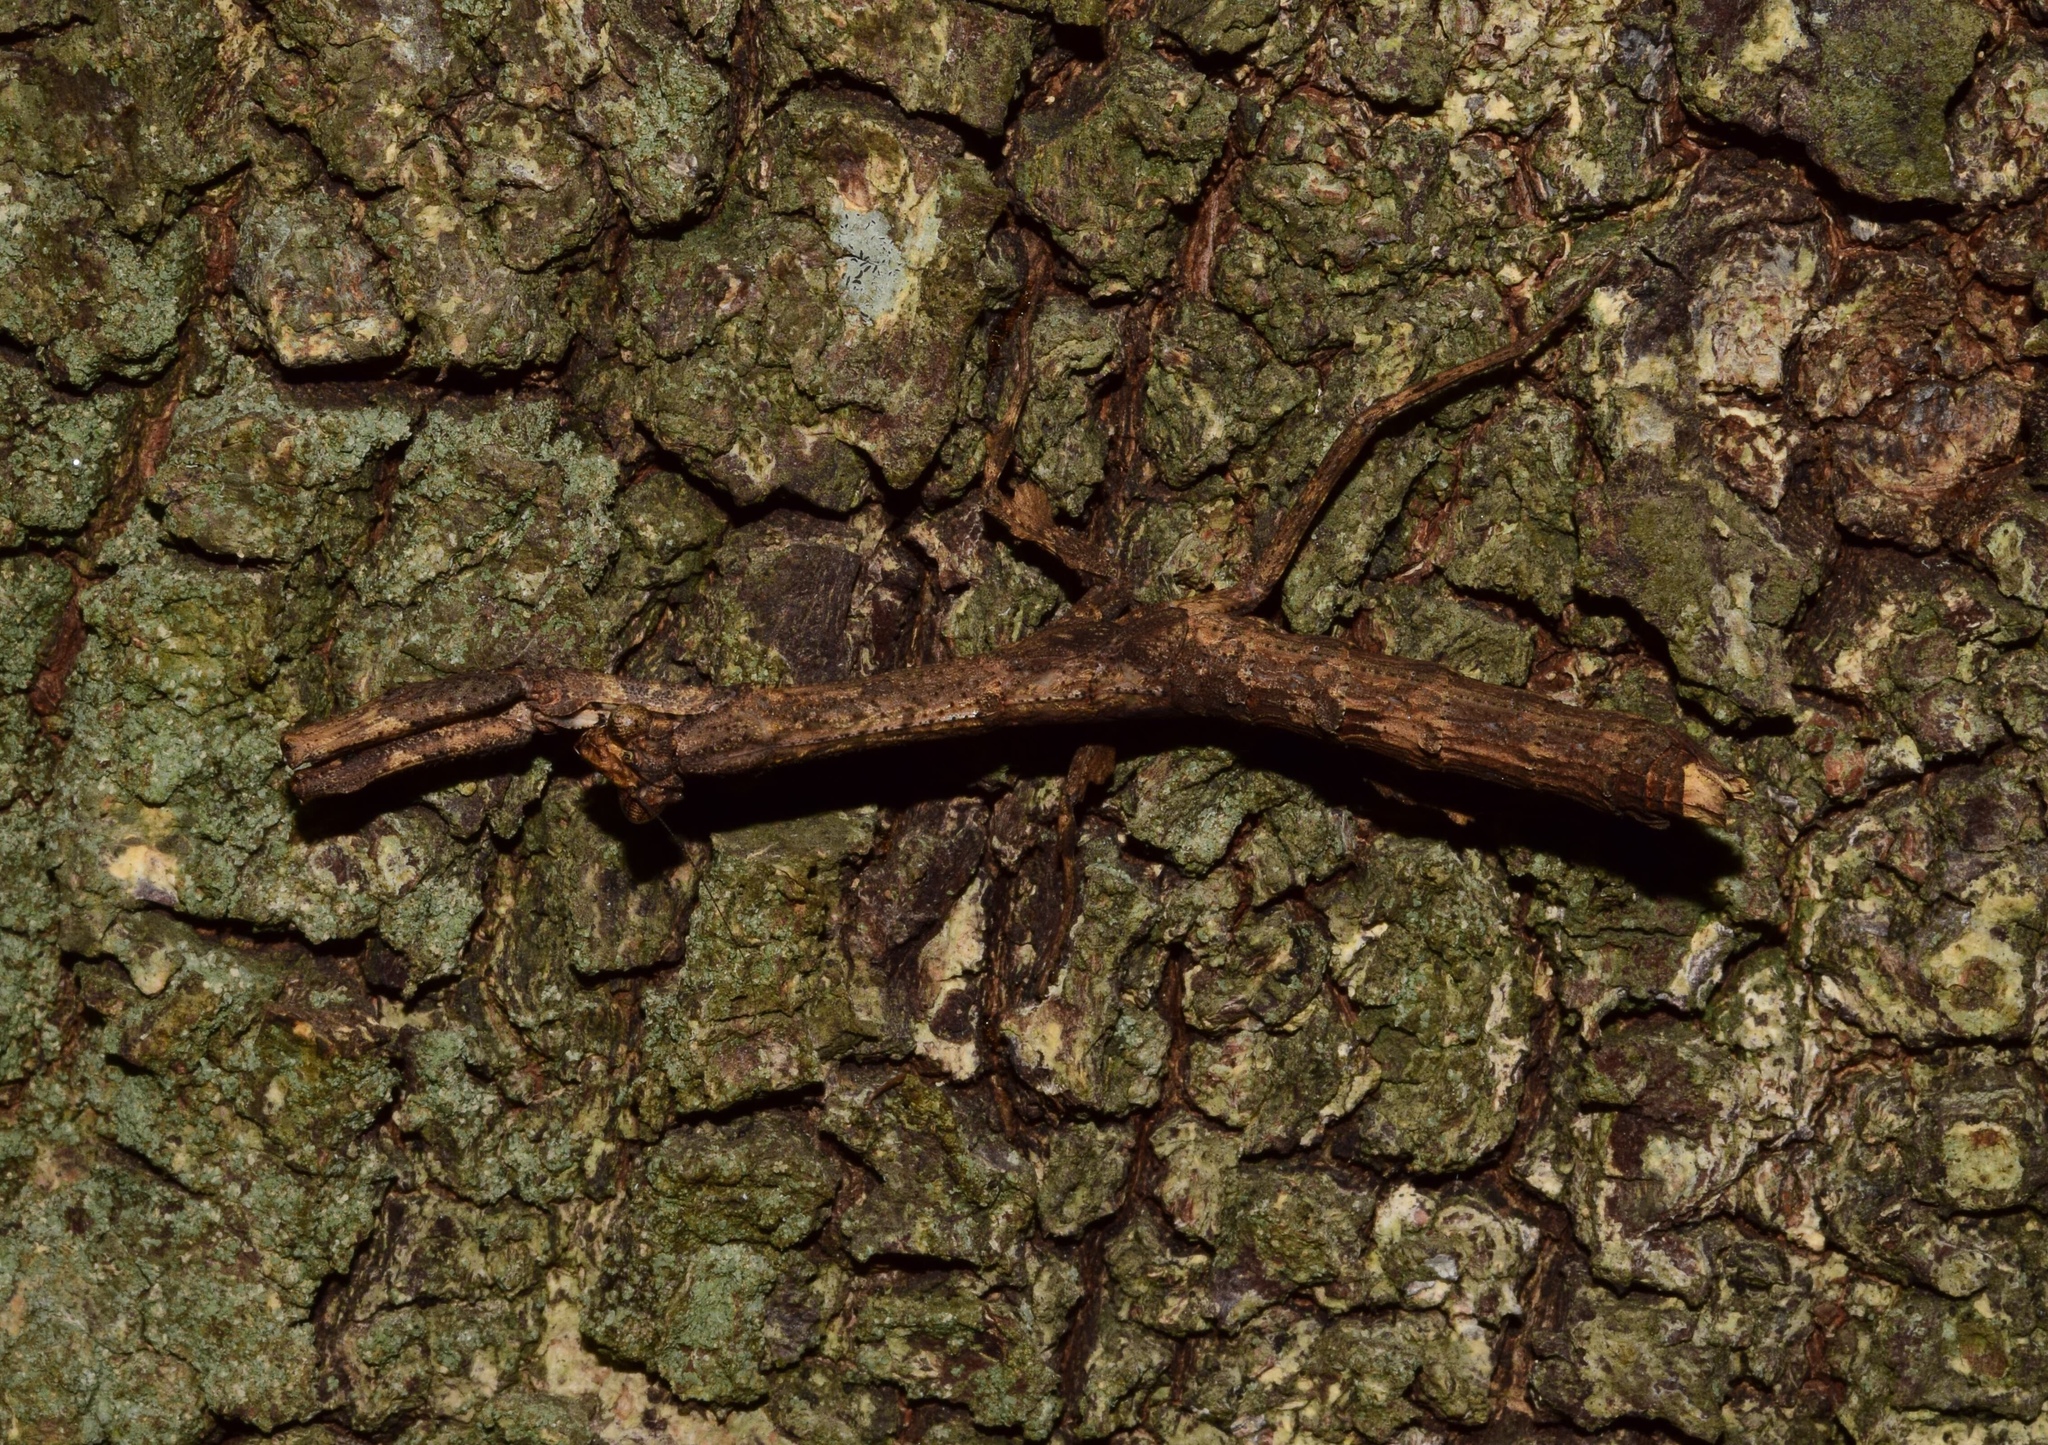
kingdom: Animalia
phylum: Arthropoda
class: Insecta
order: Mantodea
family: Deroplatyidae
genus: Popa
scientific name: Popa spurca
